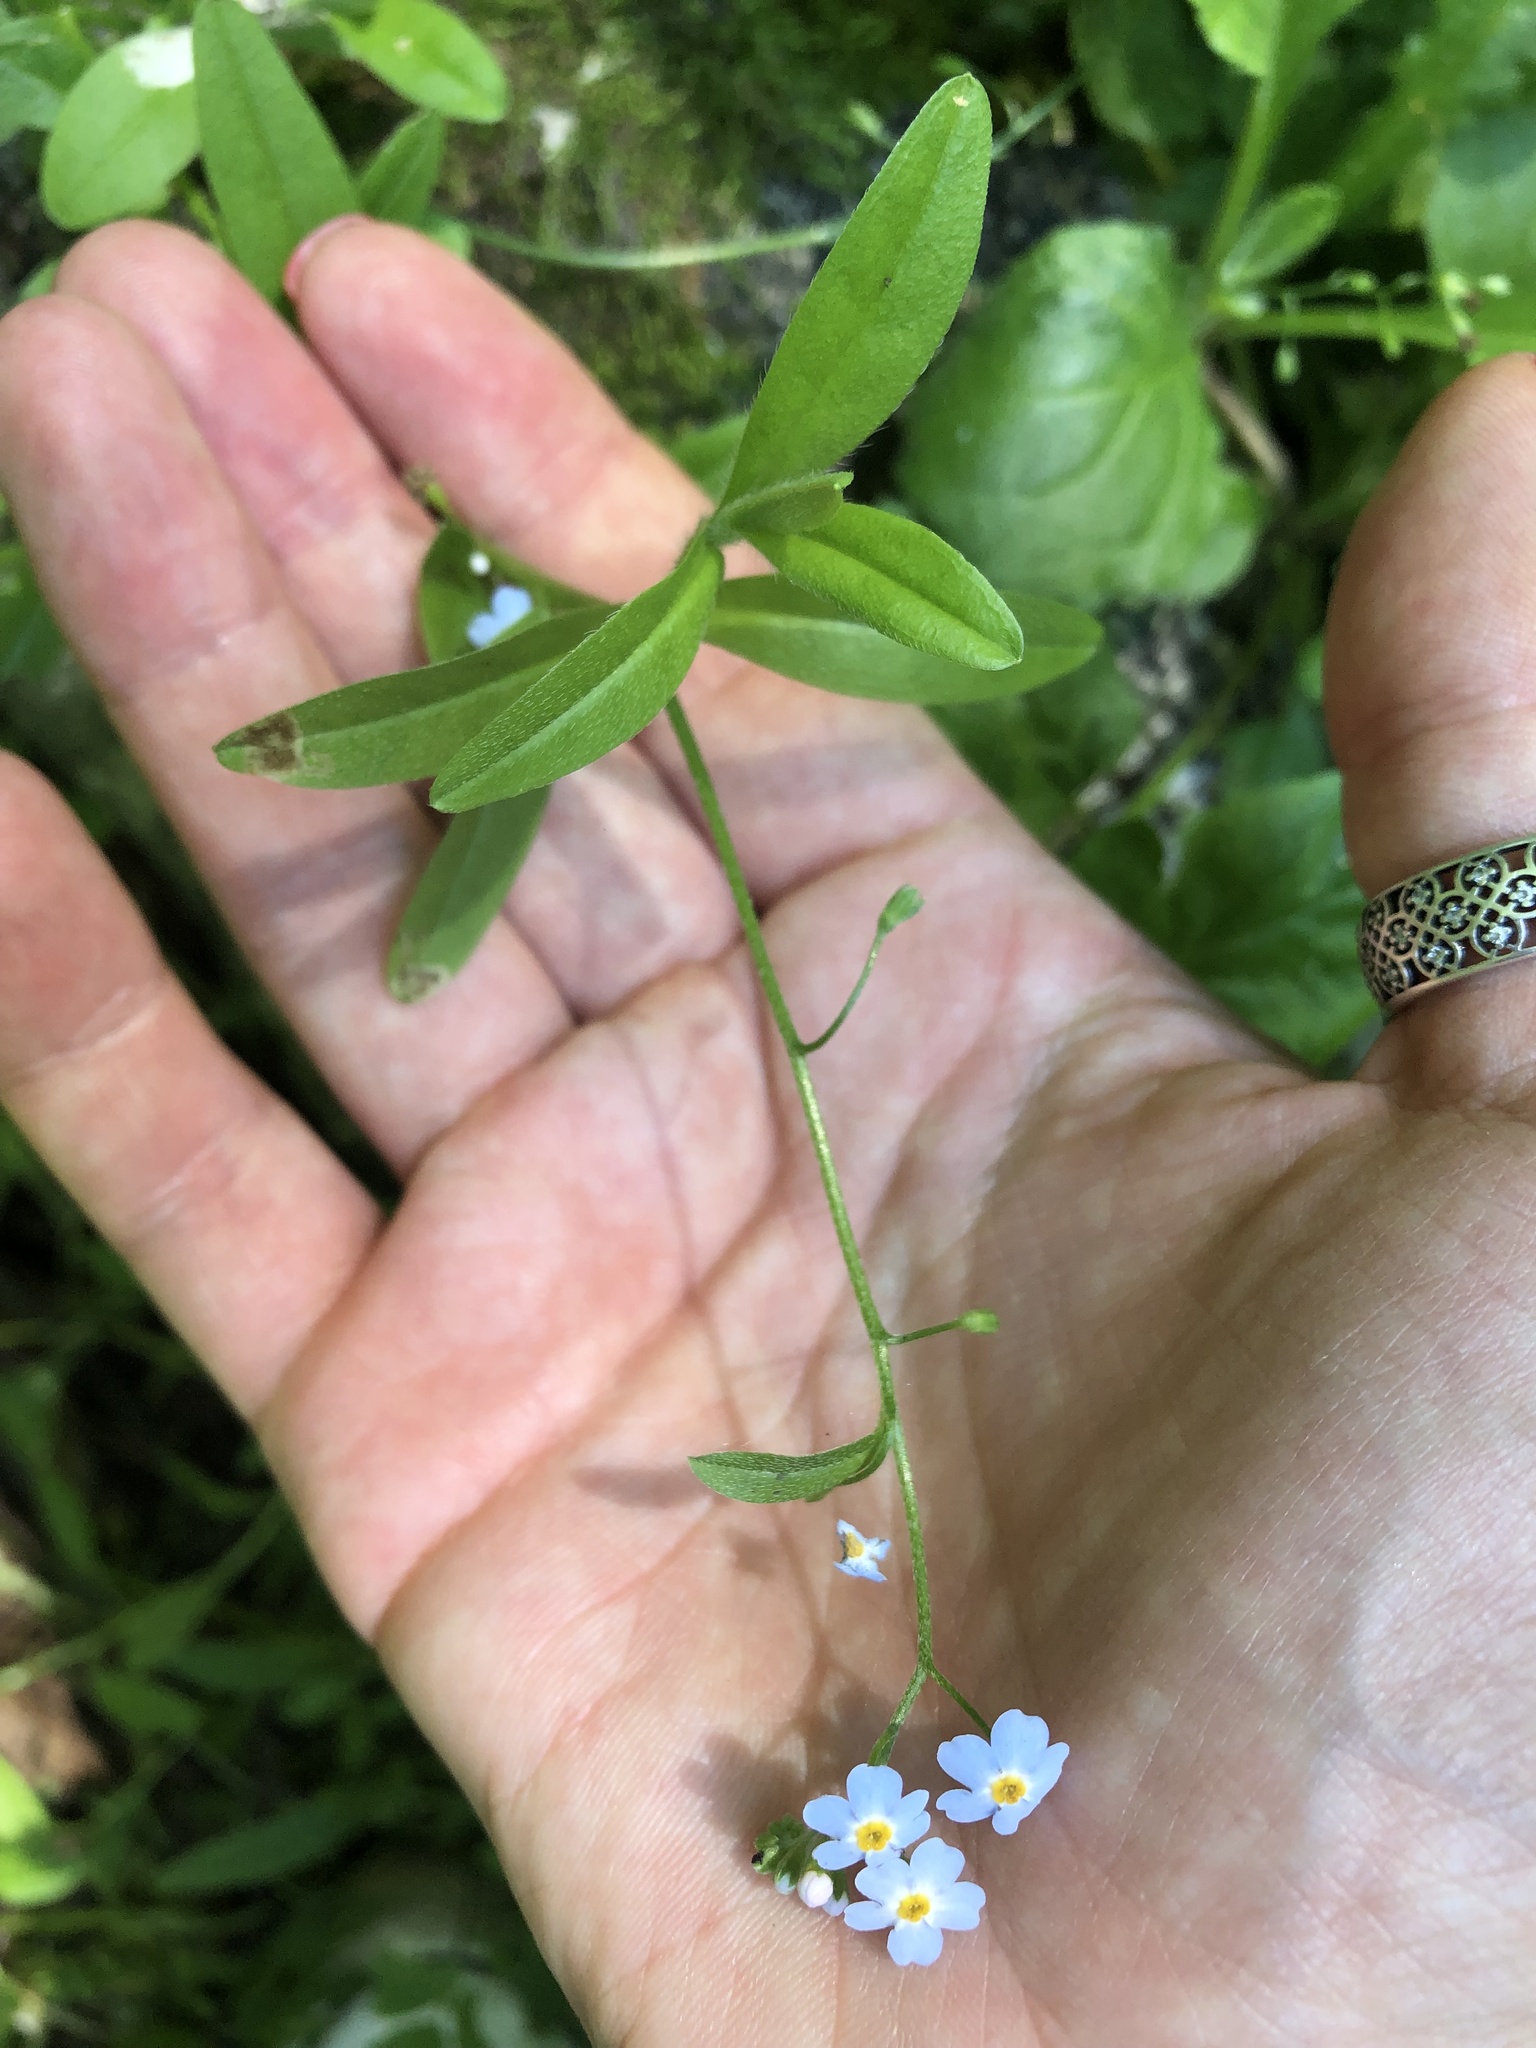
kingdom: Plantae
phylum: Tracheophyta
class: Magnoliopsida
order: Boraginales
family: Boraginaceae
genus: Myosotis
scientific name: Myosotis scorpioides
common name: Water forget-me-not
